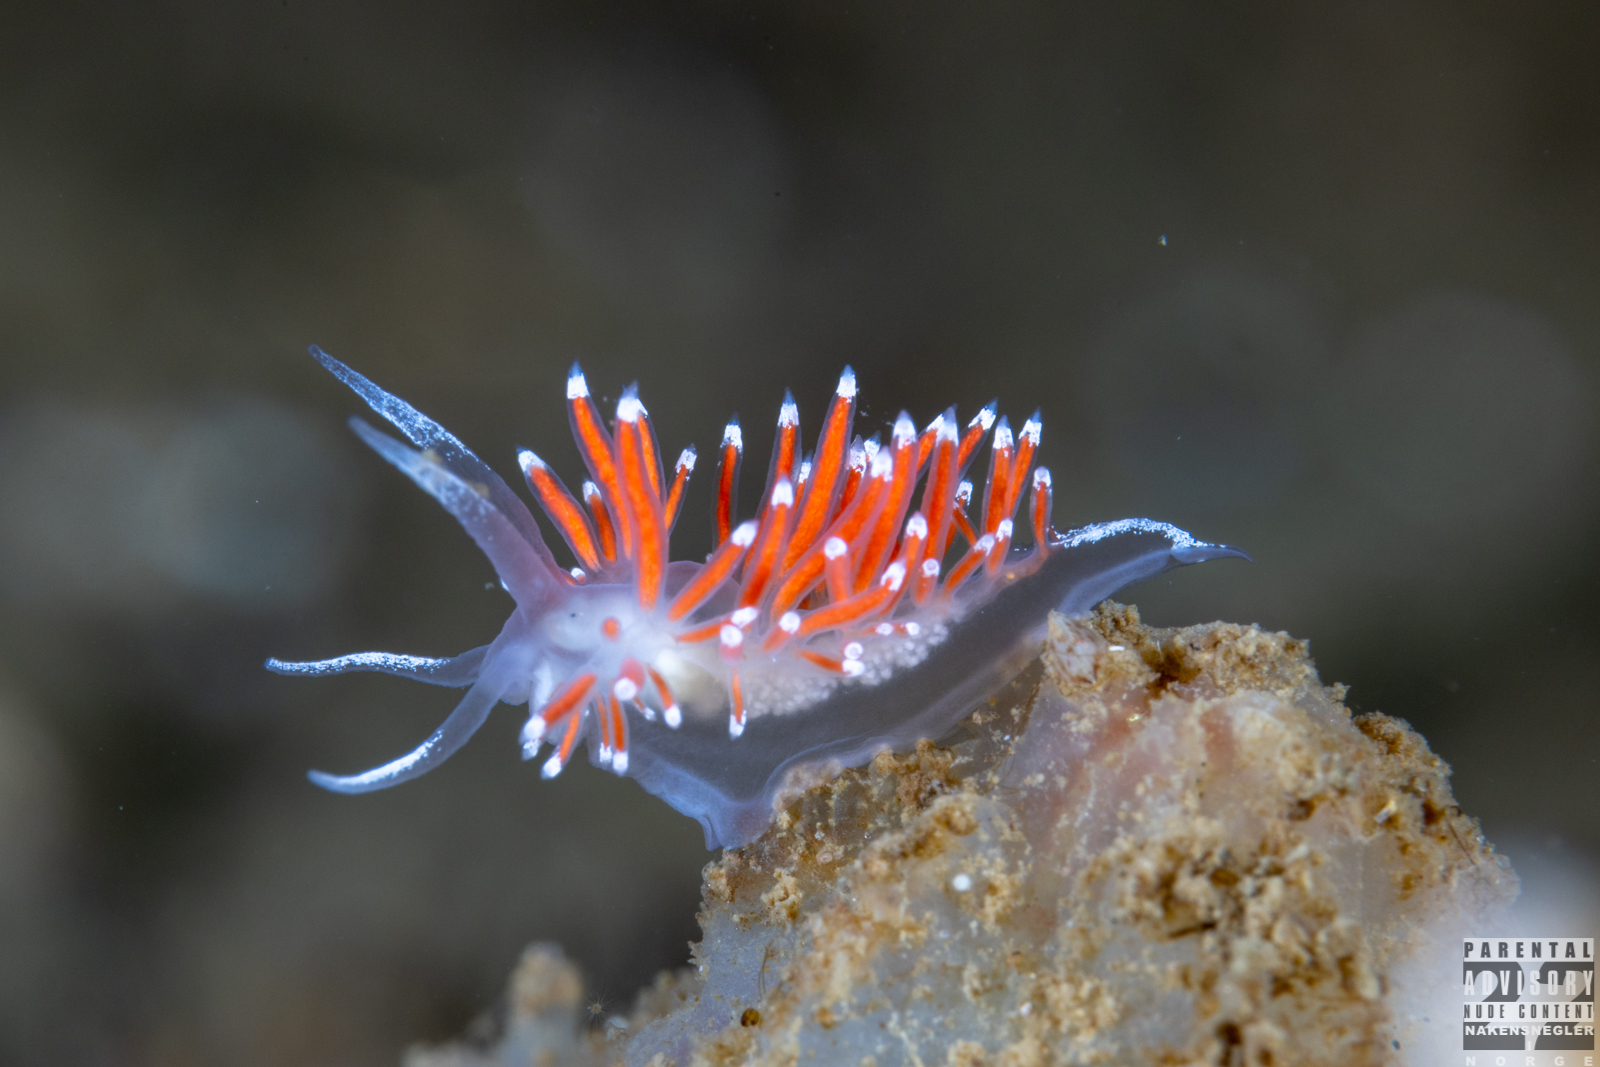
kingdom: Animalia
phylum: Mollusca
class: Gastropoda
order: Nudibranchia
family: Coryphellidae
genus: Coryphella
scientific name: Coryphella gracilis
